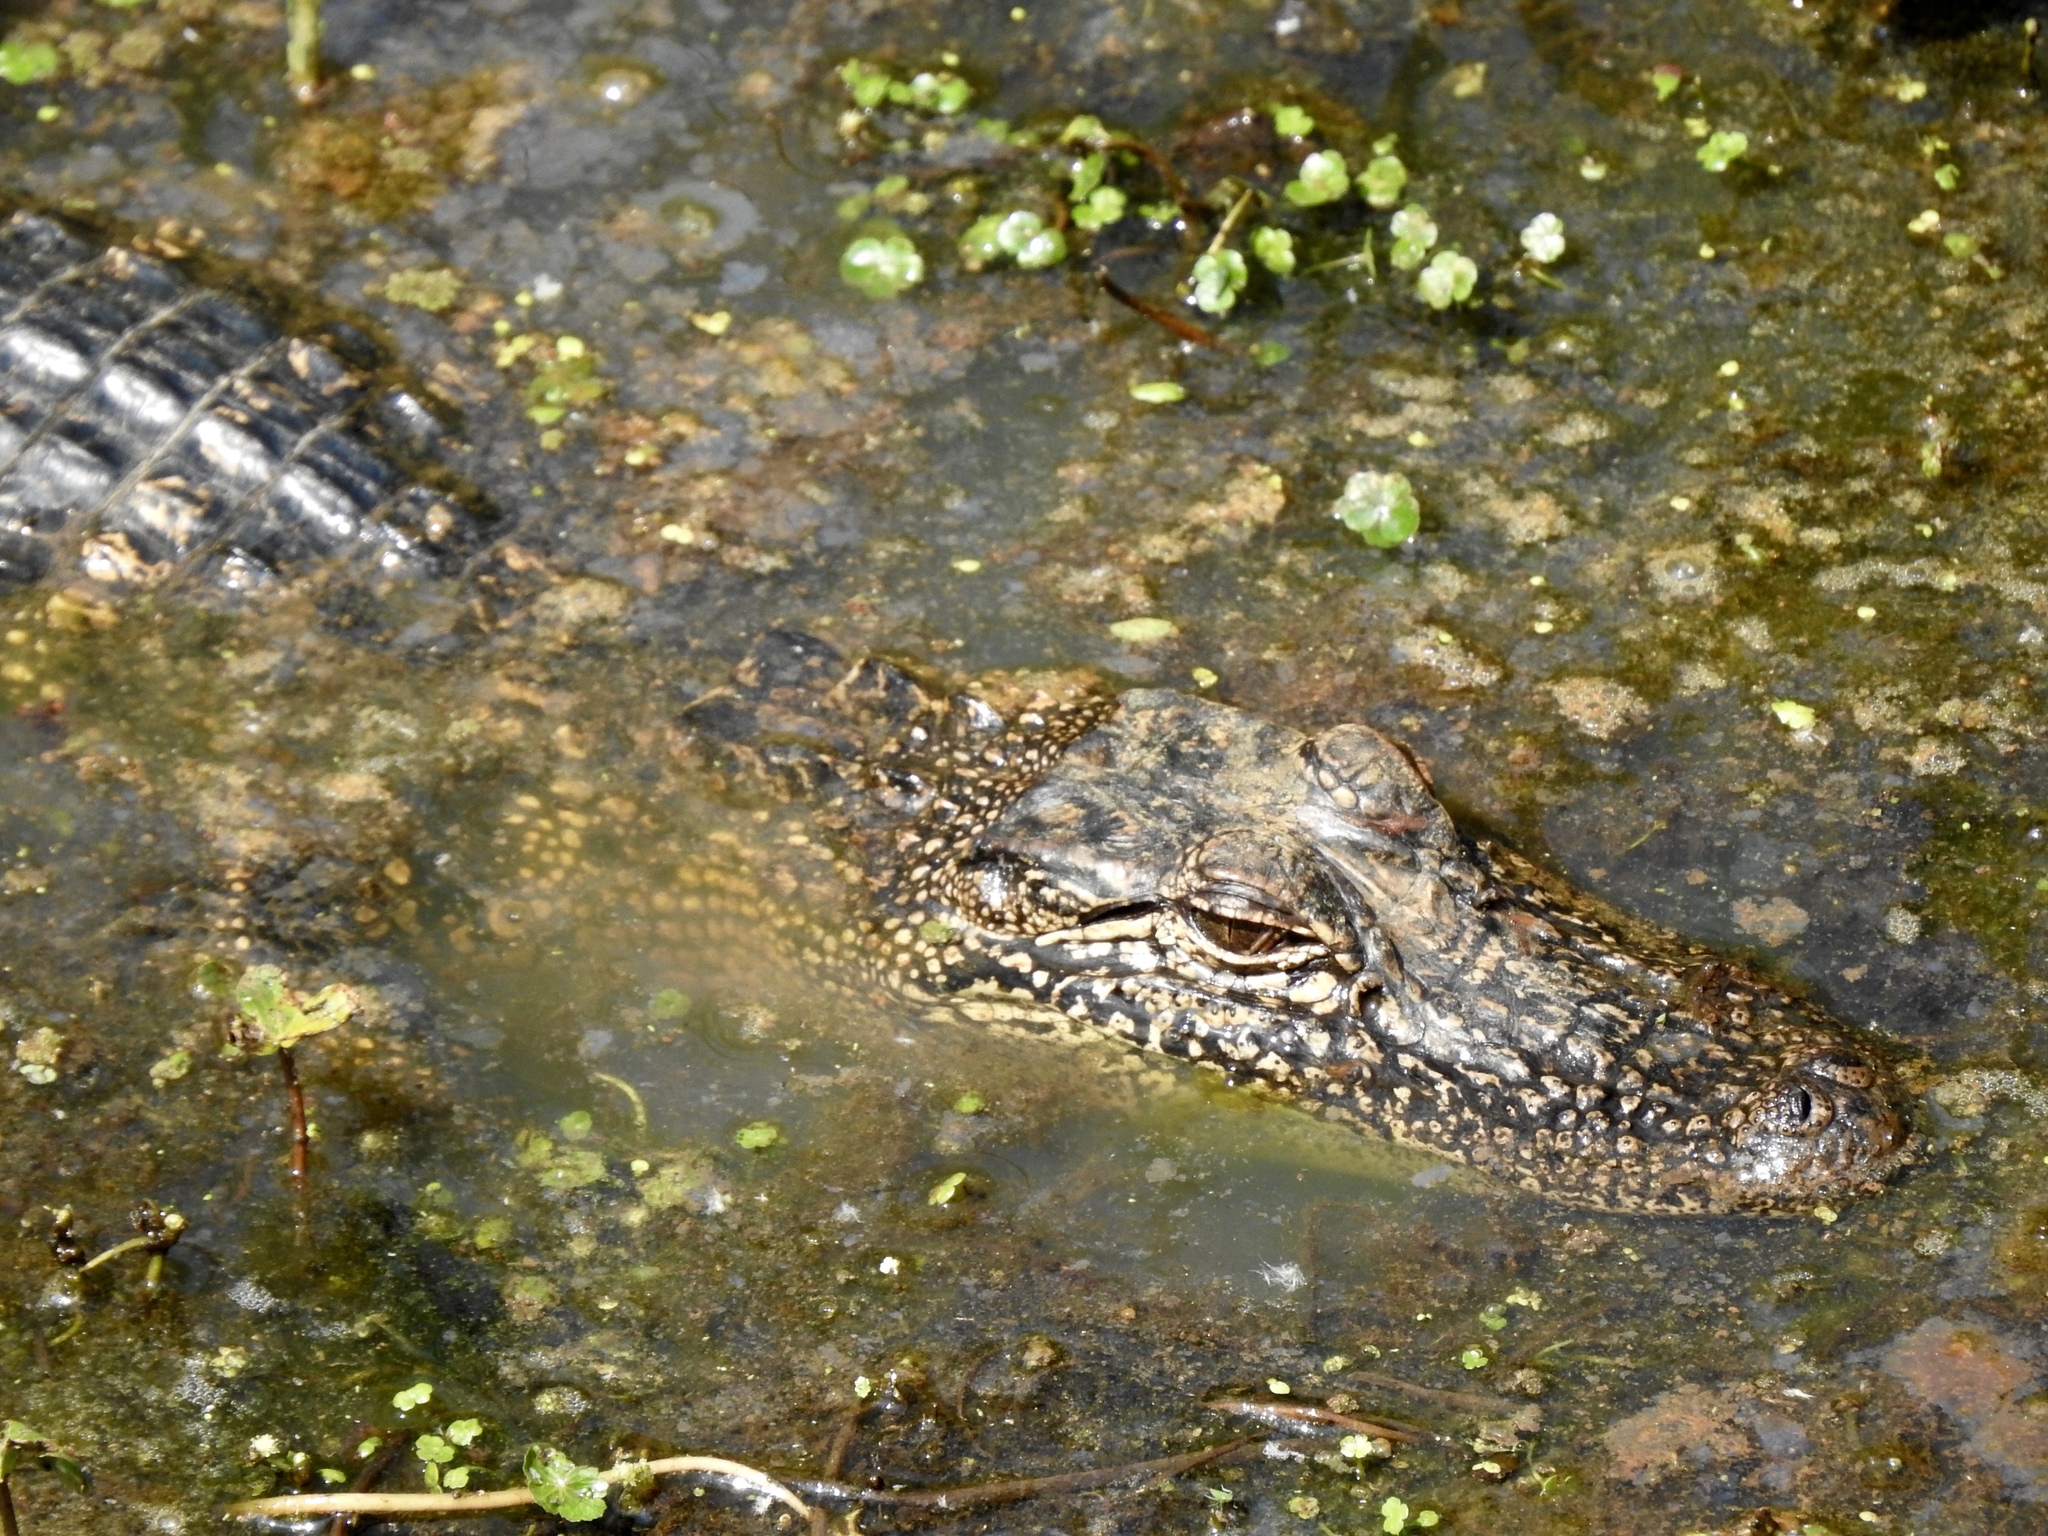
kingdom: Animalia
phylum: Chordata
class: Crocodylia
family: Alligatoridae
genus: Alligator
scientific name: Alligator mississippiensis
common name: American alligator
